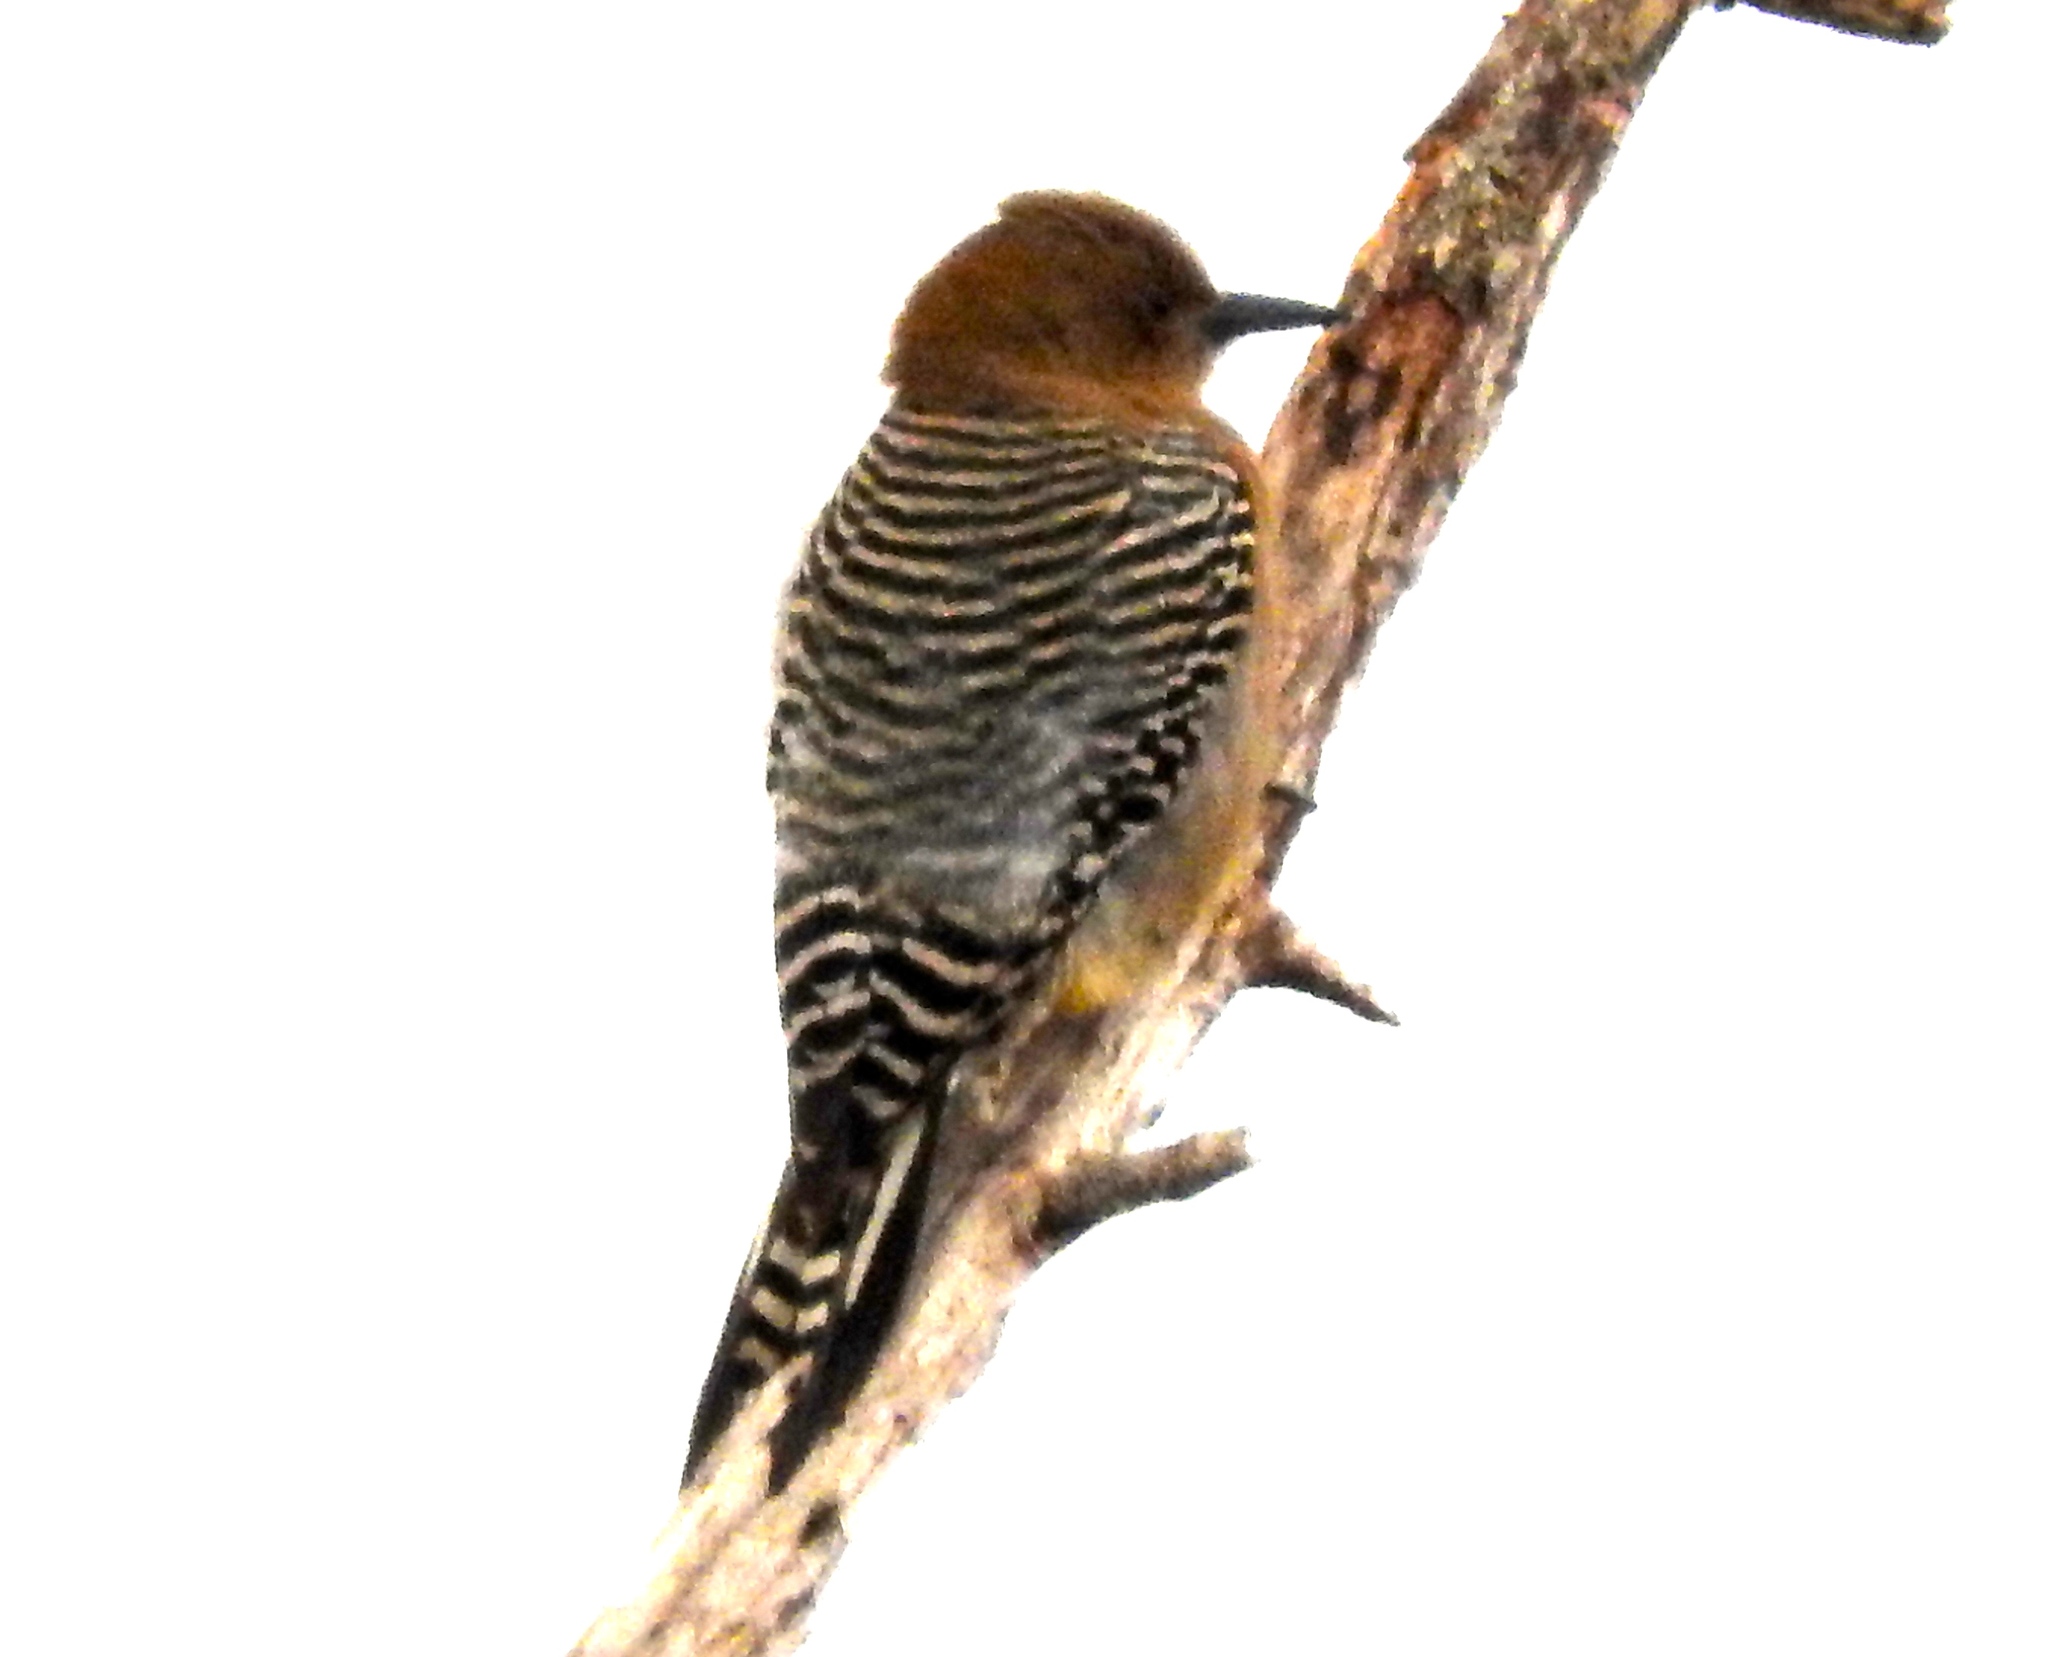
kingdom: Animalia
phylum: Chordata
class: Aves
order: Piciformes
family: Picidae
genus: Melanerpes
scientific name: Melanerpes uropygialis
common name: Gila woodpecker
